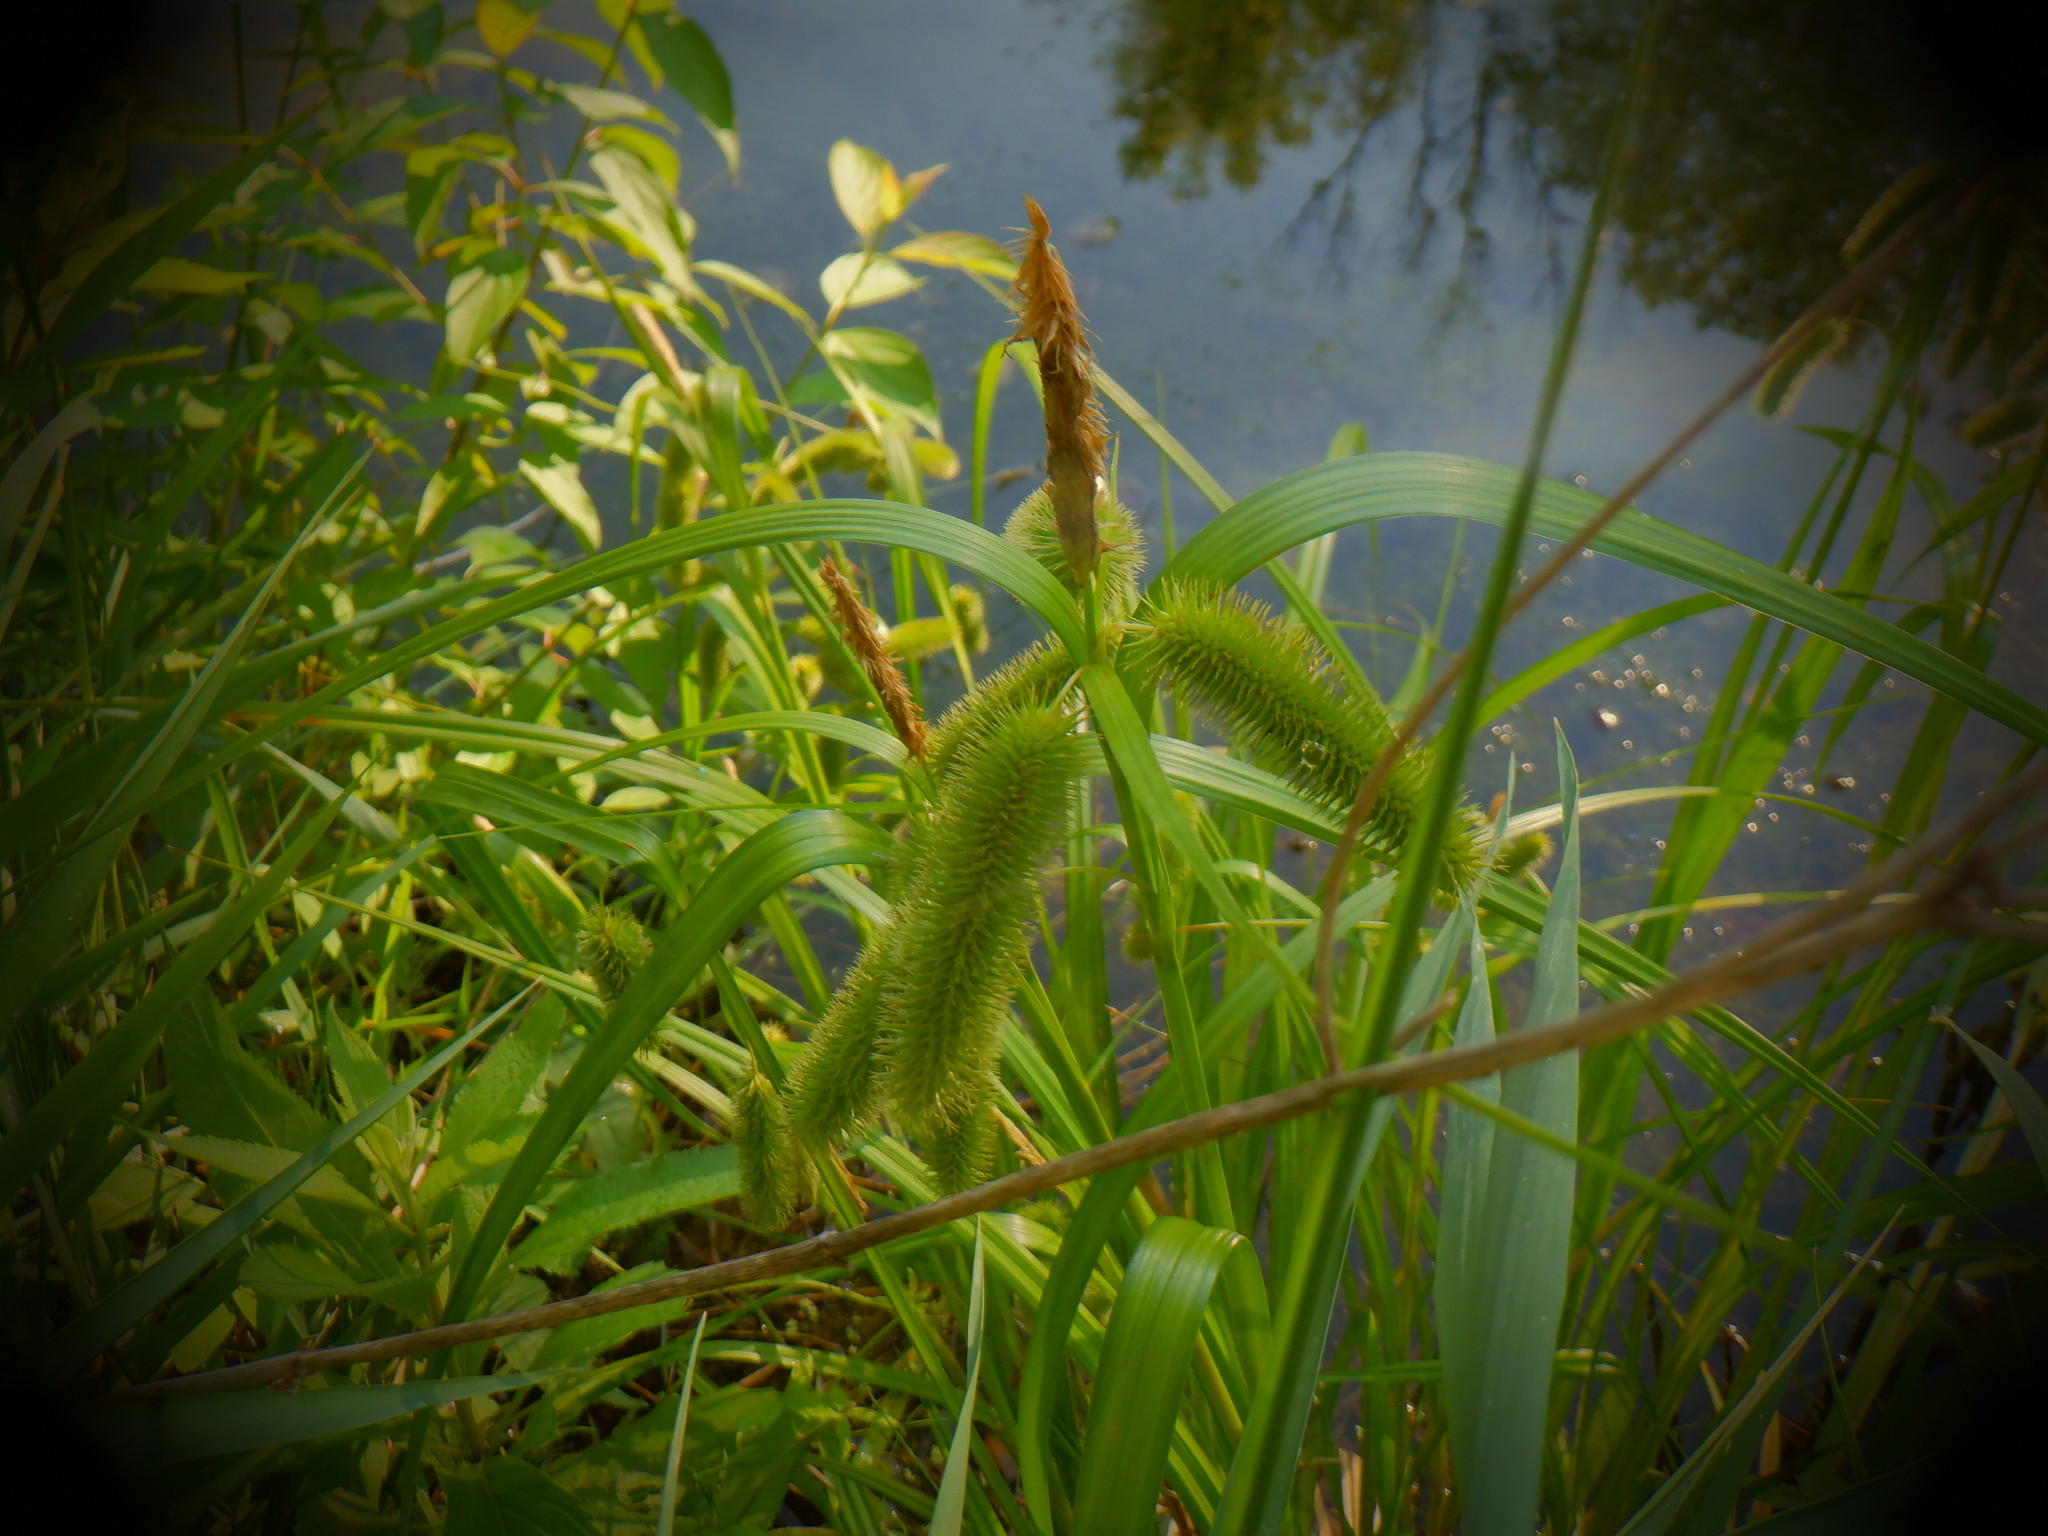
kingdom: Plantae
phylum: Tracheophyta
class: Liliopsida
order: Poales
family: Cyperaceae
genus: Carex
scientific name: Carex comosa
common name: Bristly sedge
